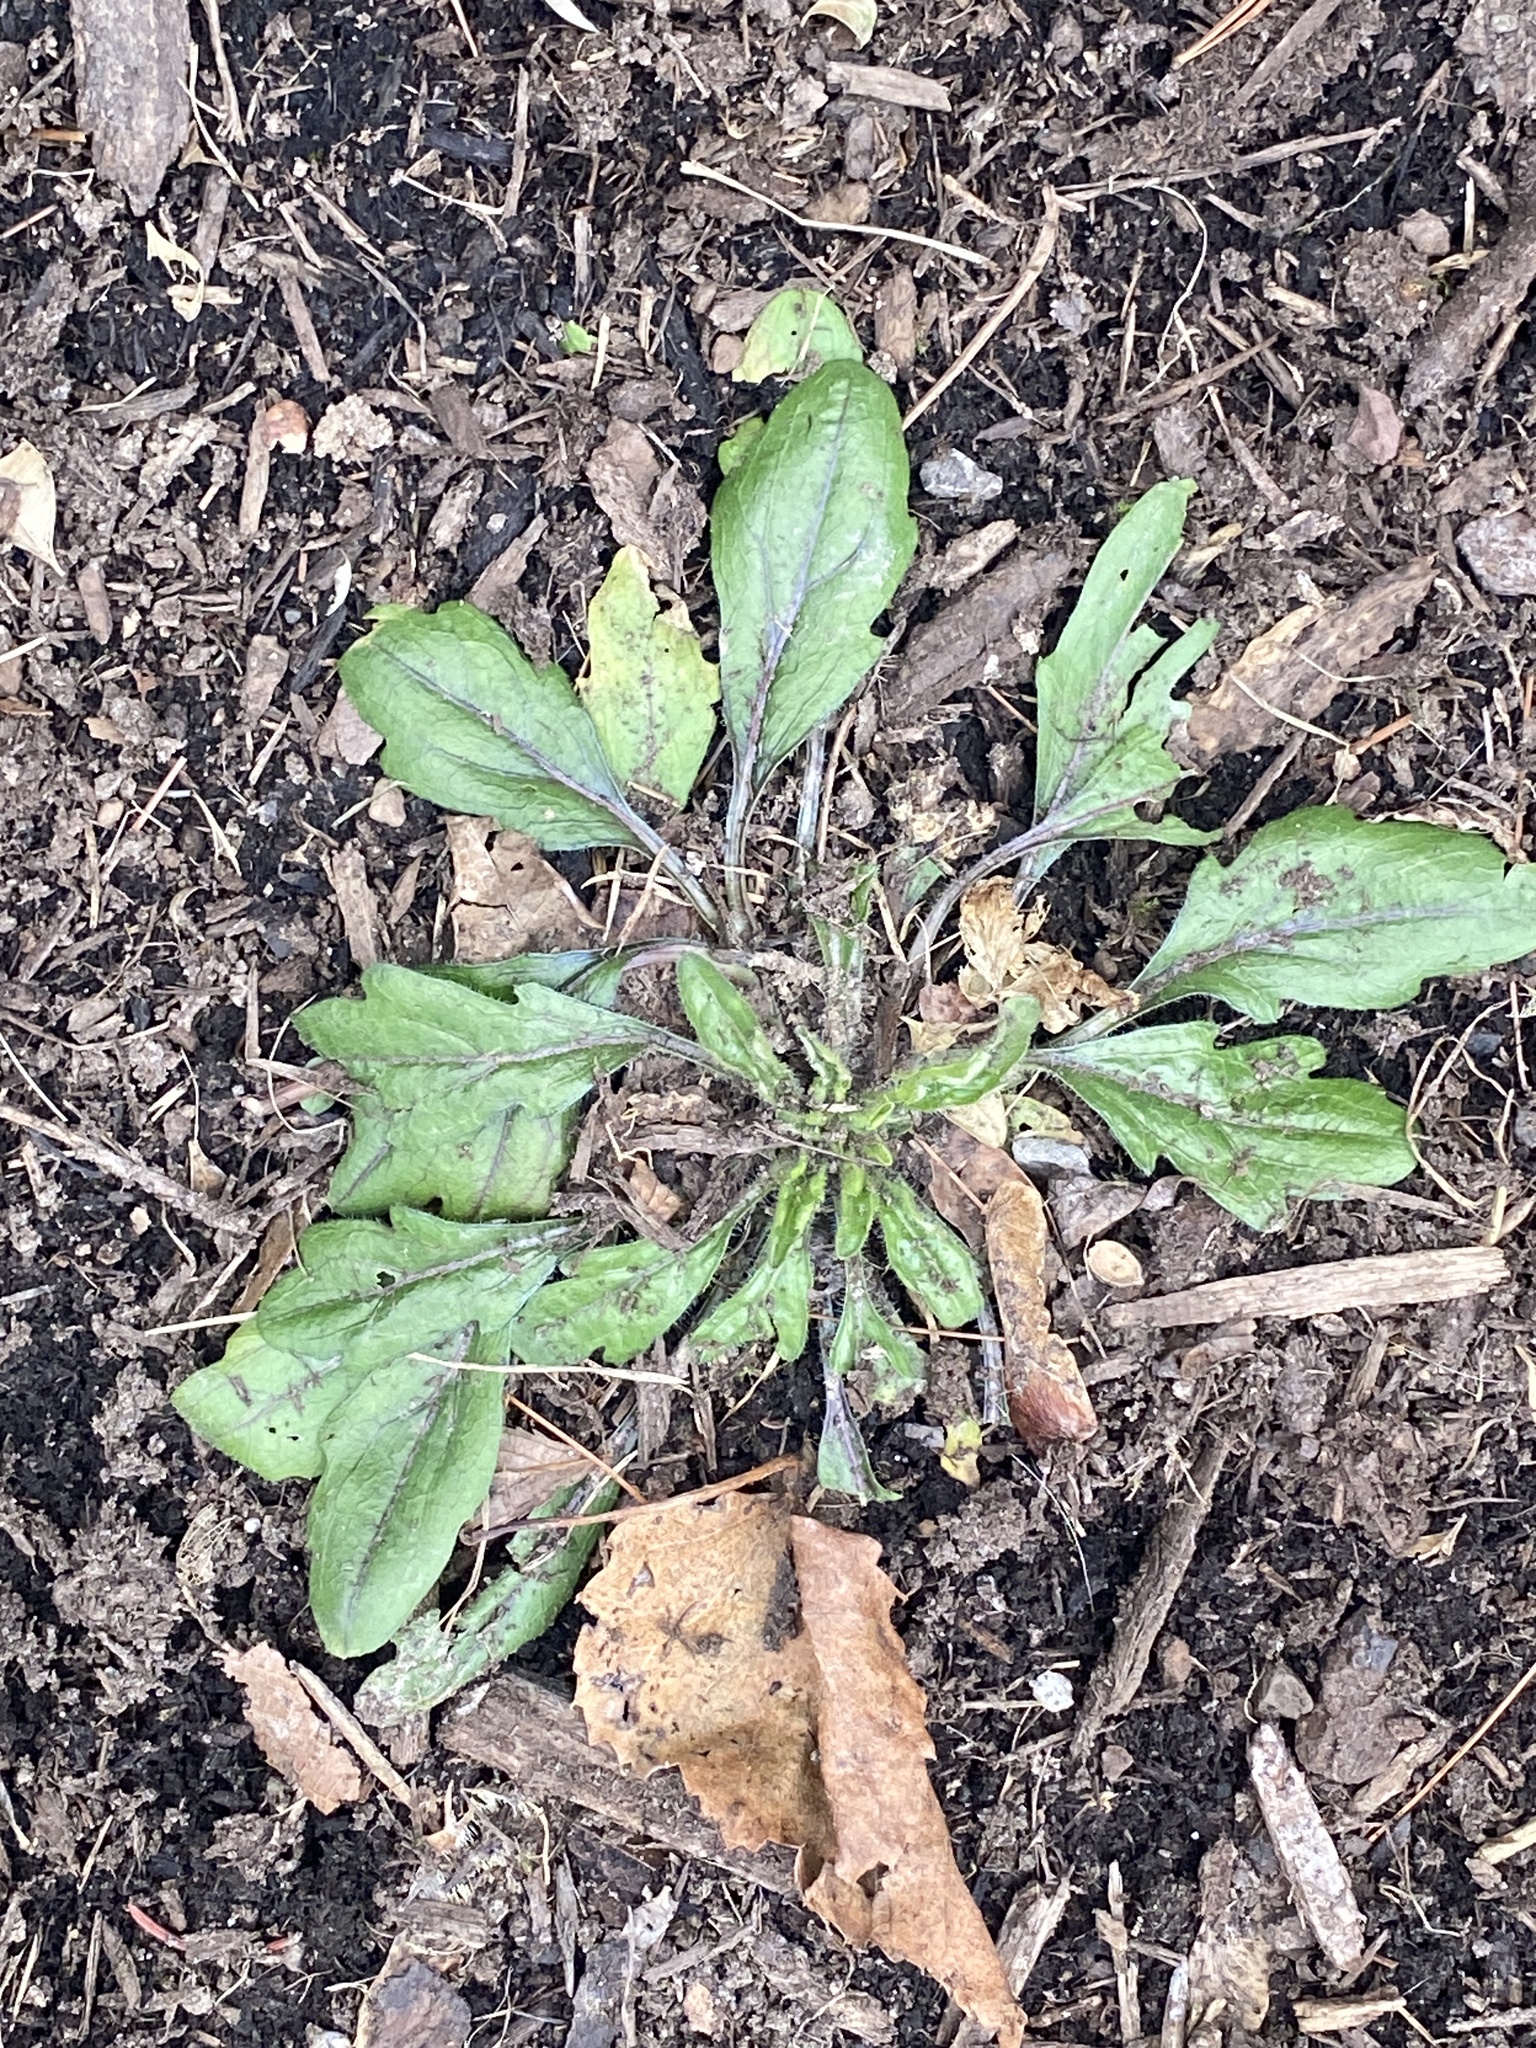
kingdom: Plantae
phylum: Tracheophyta
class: Magnoliopsida
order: Asterales
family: Asteraceae
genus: Erigeron
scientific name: Erigeron canadensis
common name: Canadian fleabane
